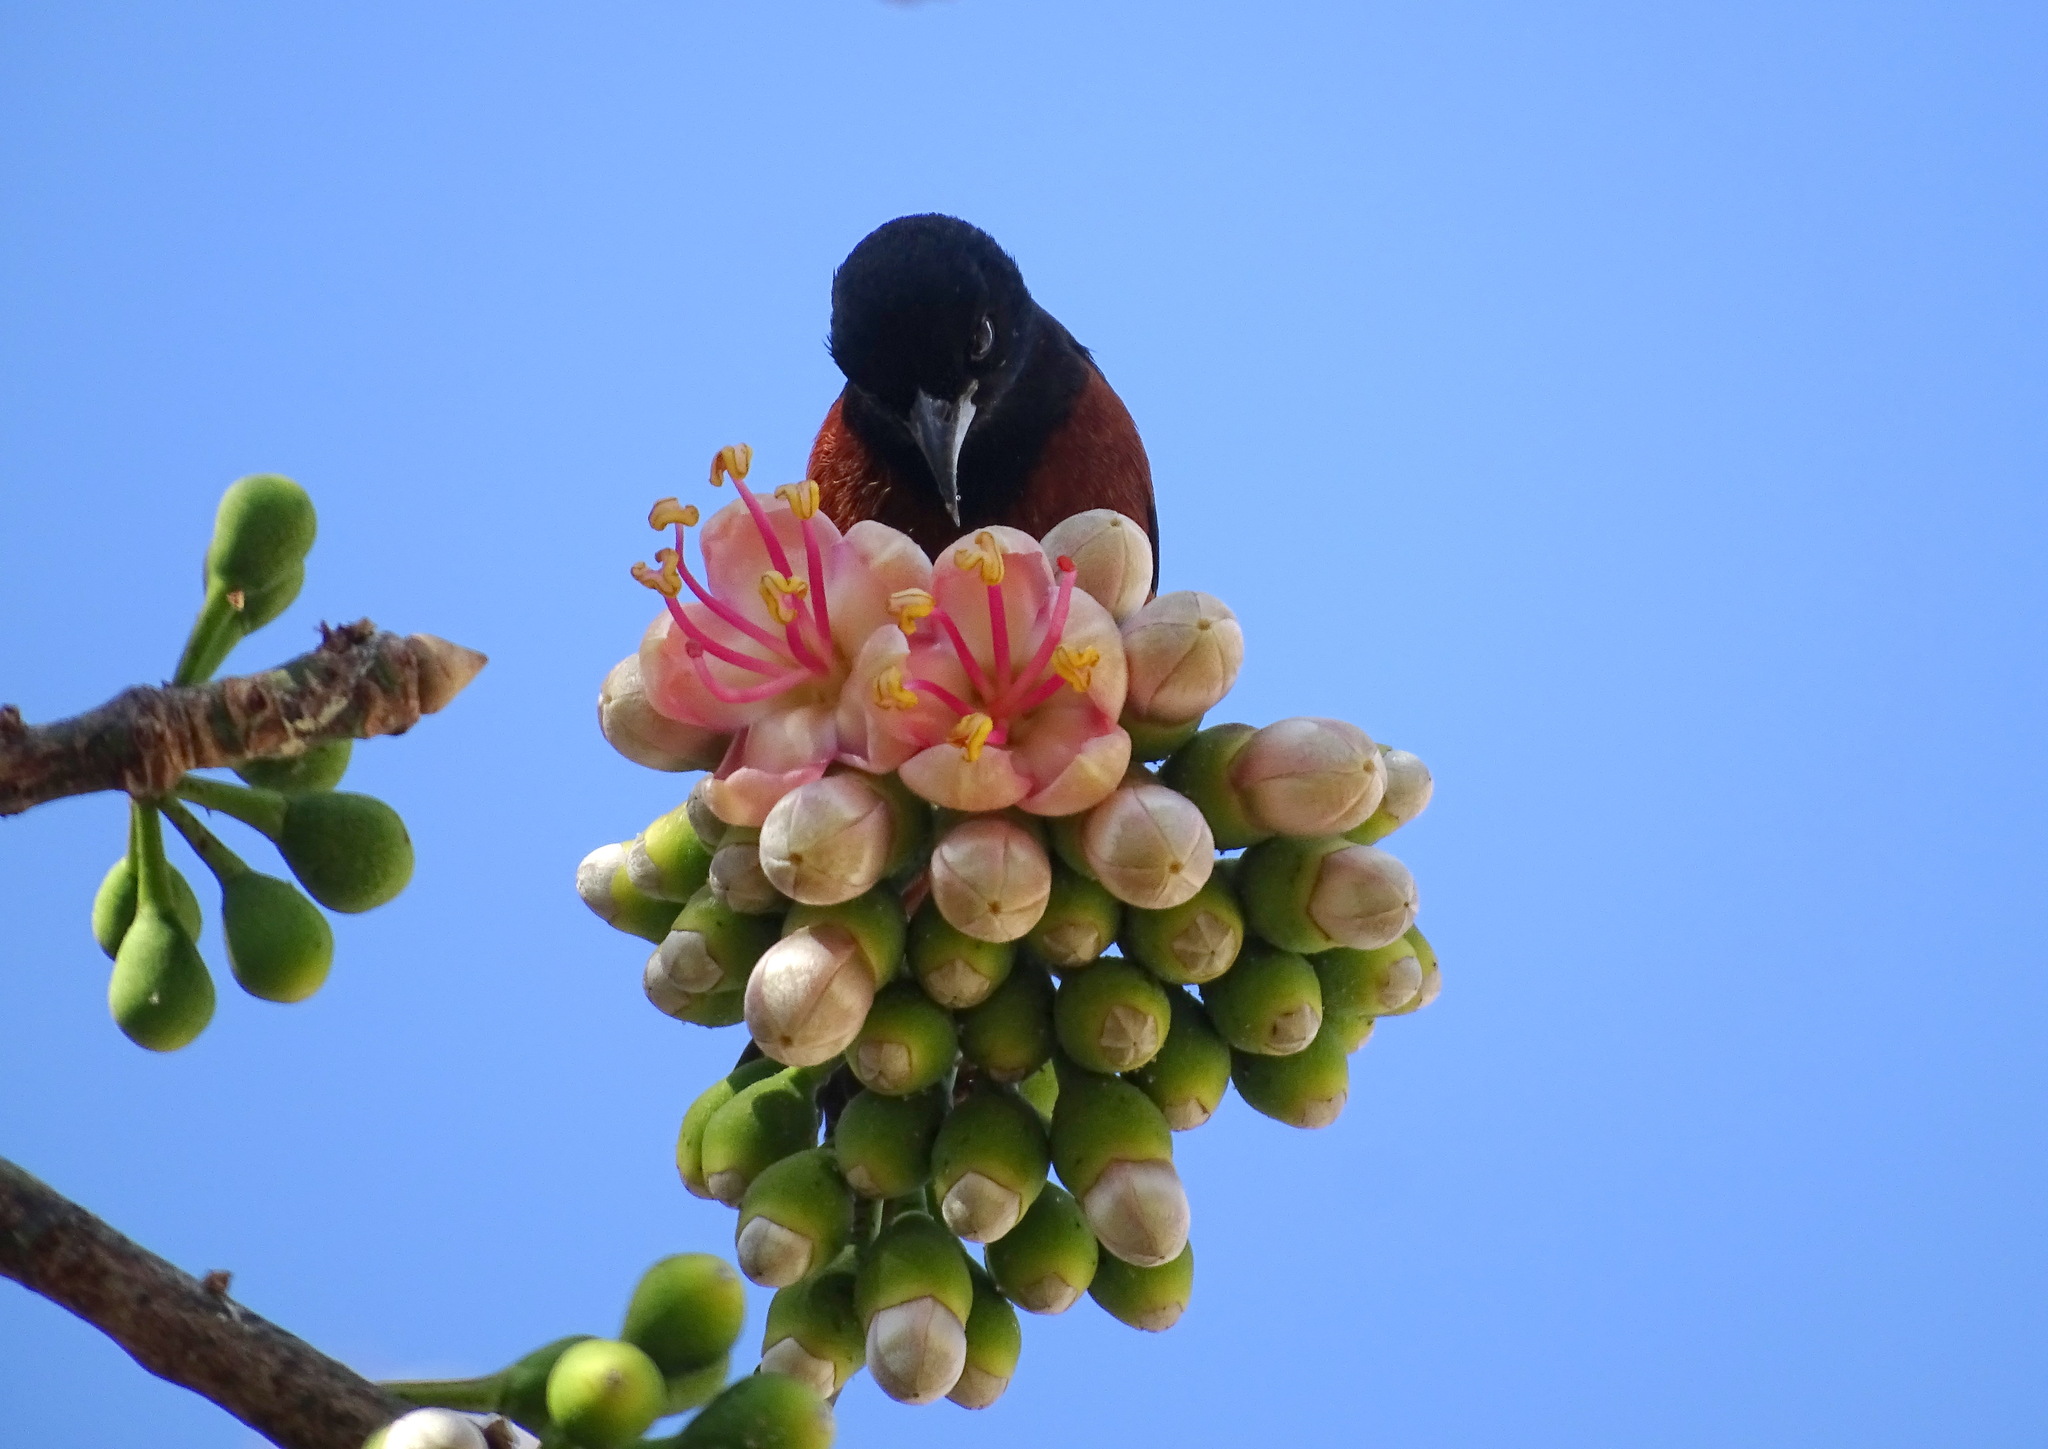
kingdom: Animalia
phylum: Chordata
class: Aves
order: Passeriformes
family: Icteridae
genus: Icterus
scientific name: Icterus spurius
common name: Orchard oriole
